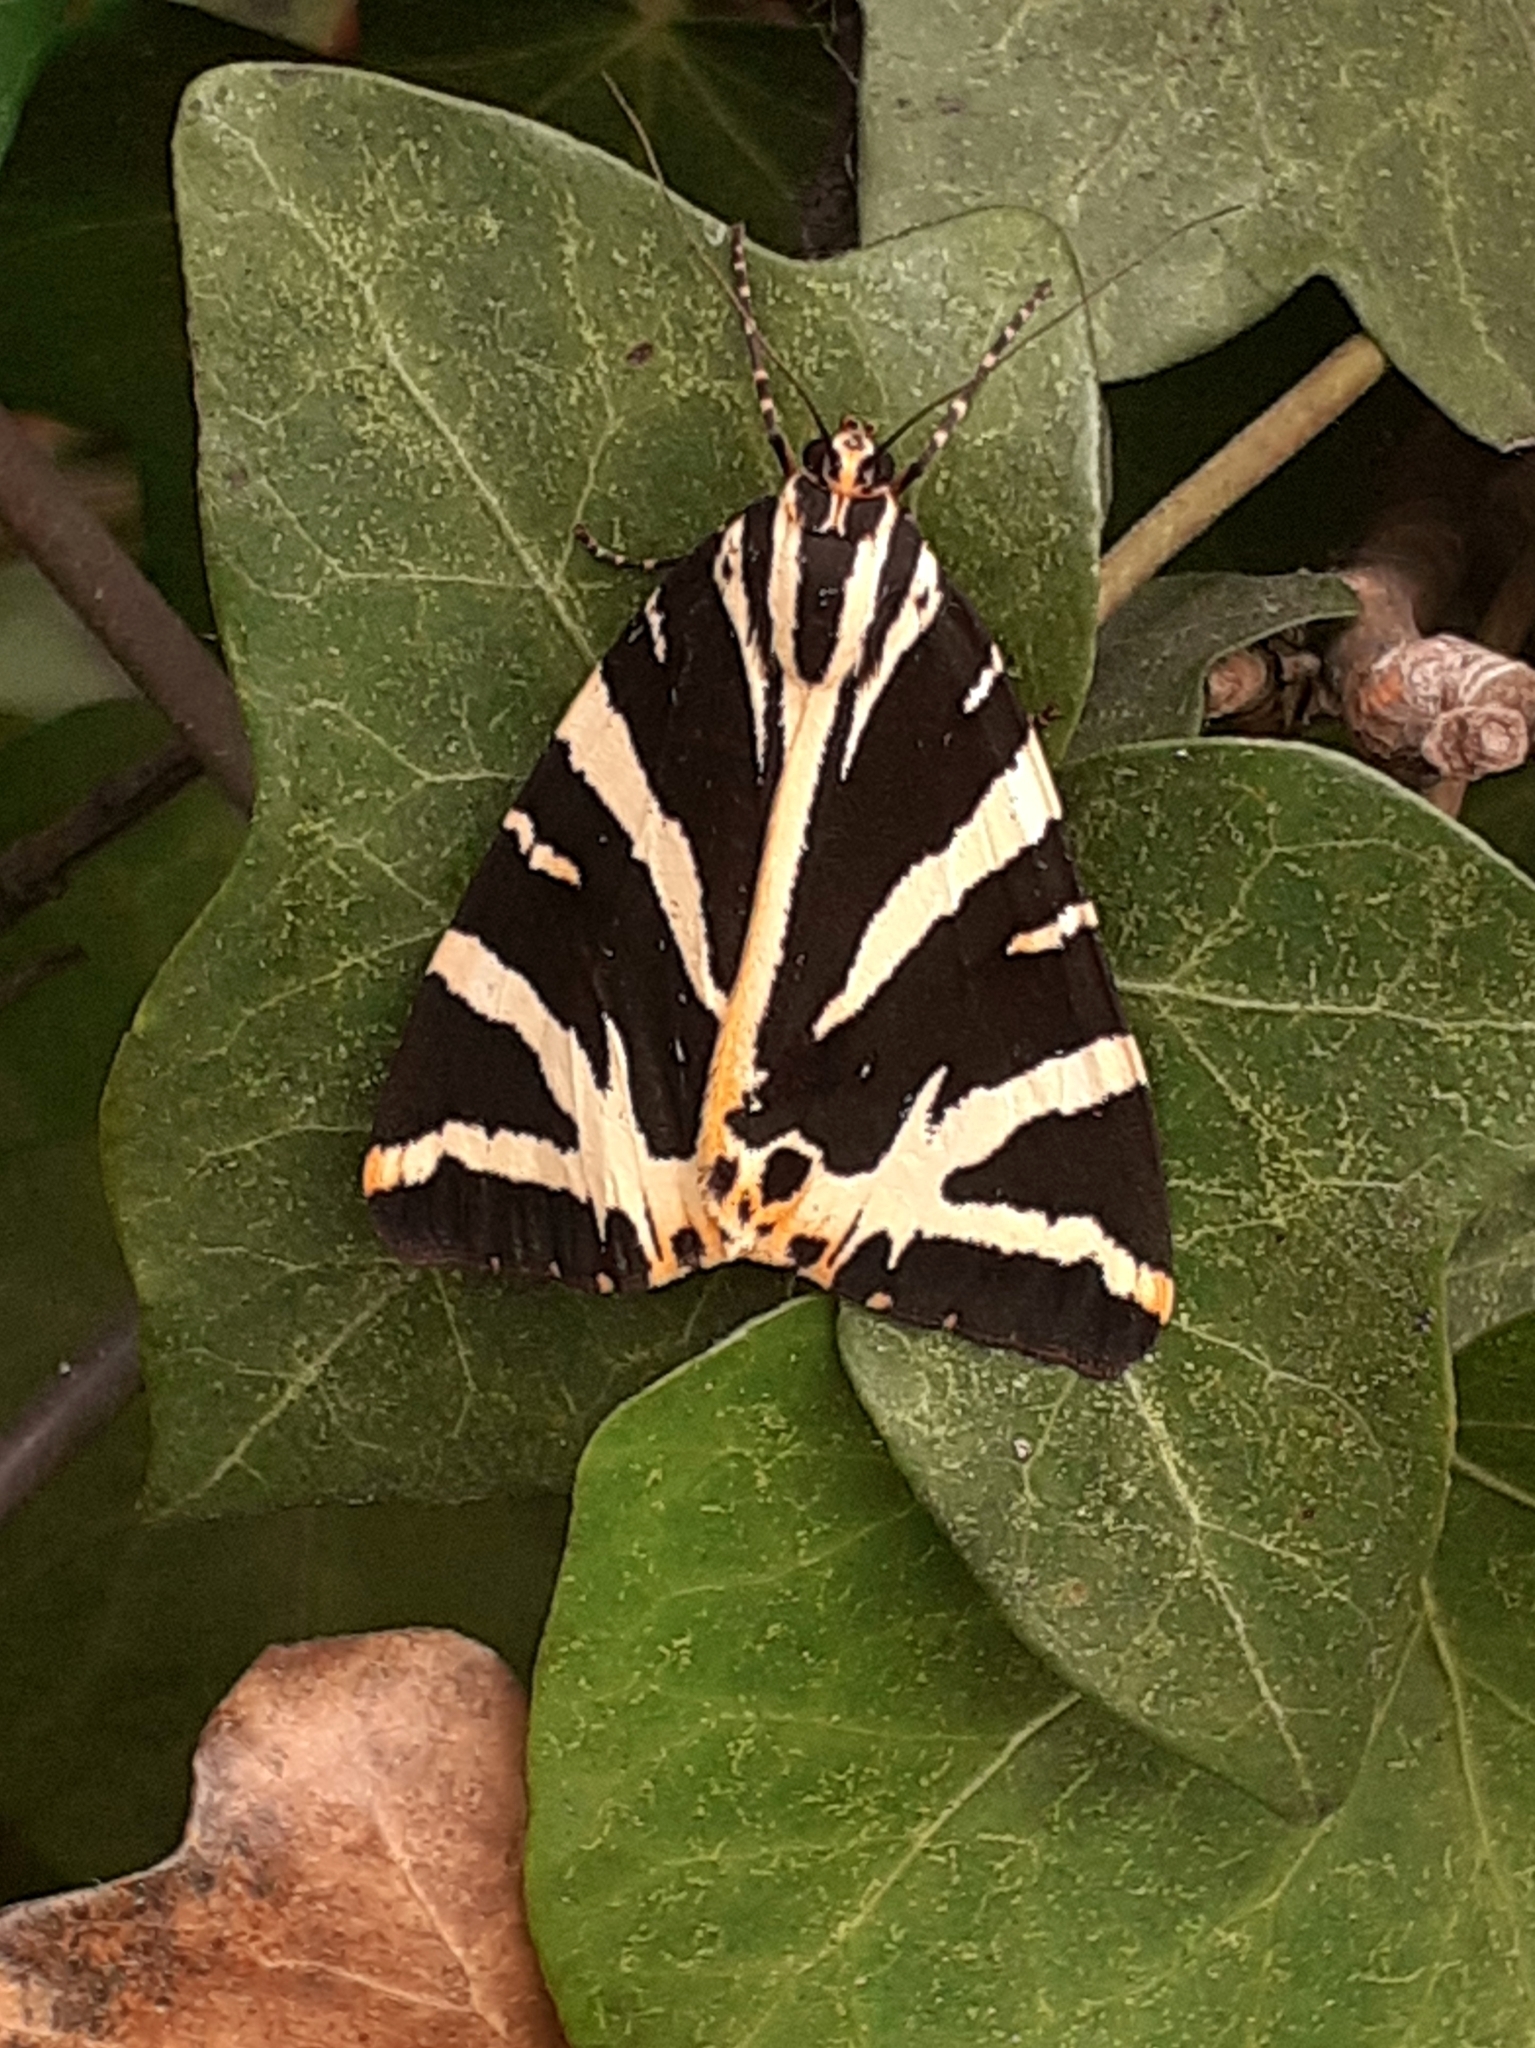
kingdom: Animalia
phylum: Arthropoda
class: Insecta
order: Lepidoptera
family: Erebidae
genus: Euplagia
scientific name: Euplagia quadripunctaria
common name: Jersey tiger
